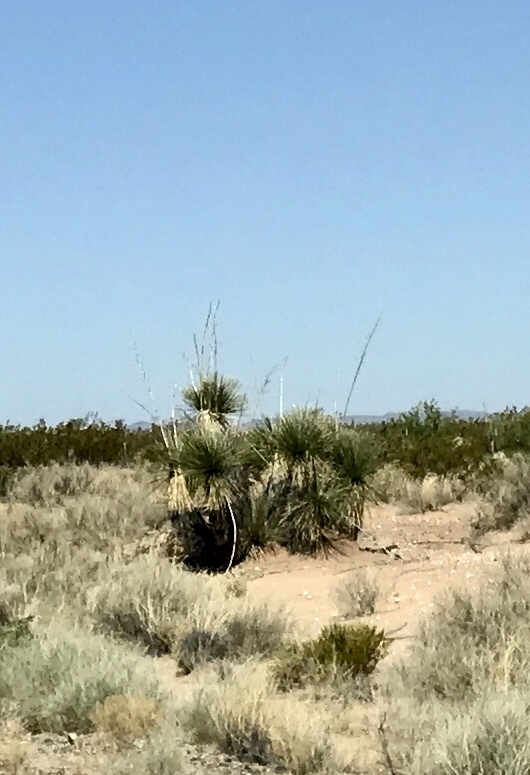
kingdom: Plantae
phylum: Tracheophyta
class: Liliopsida
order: Asparagales
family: Asparagaceae
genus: Yucca
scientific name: Yucca elata
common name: Palmella
